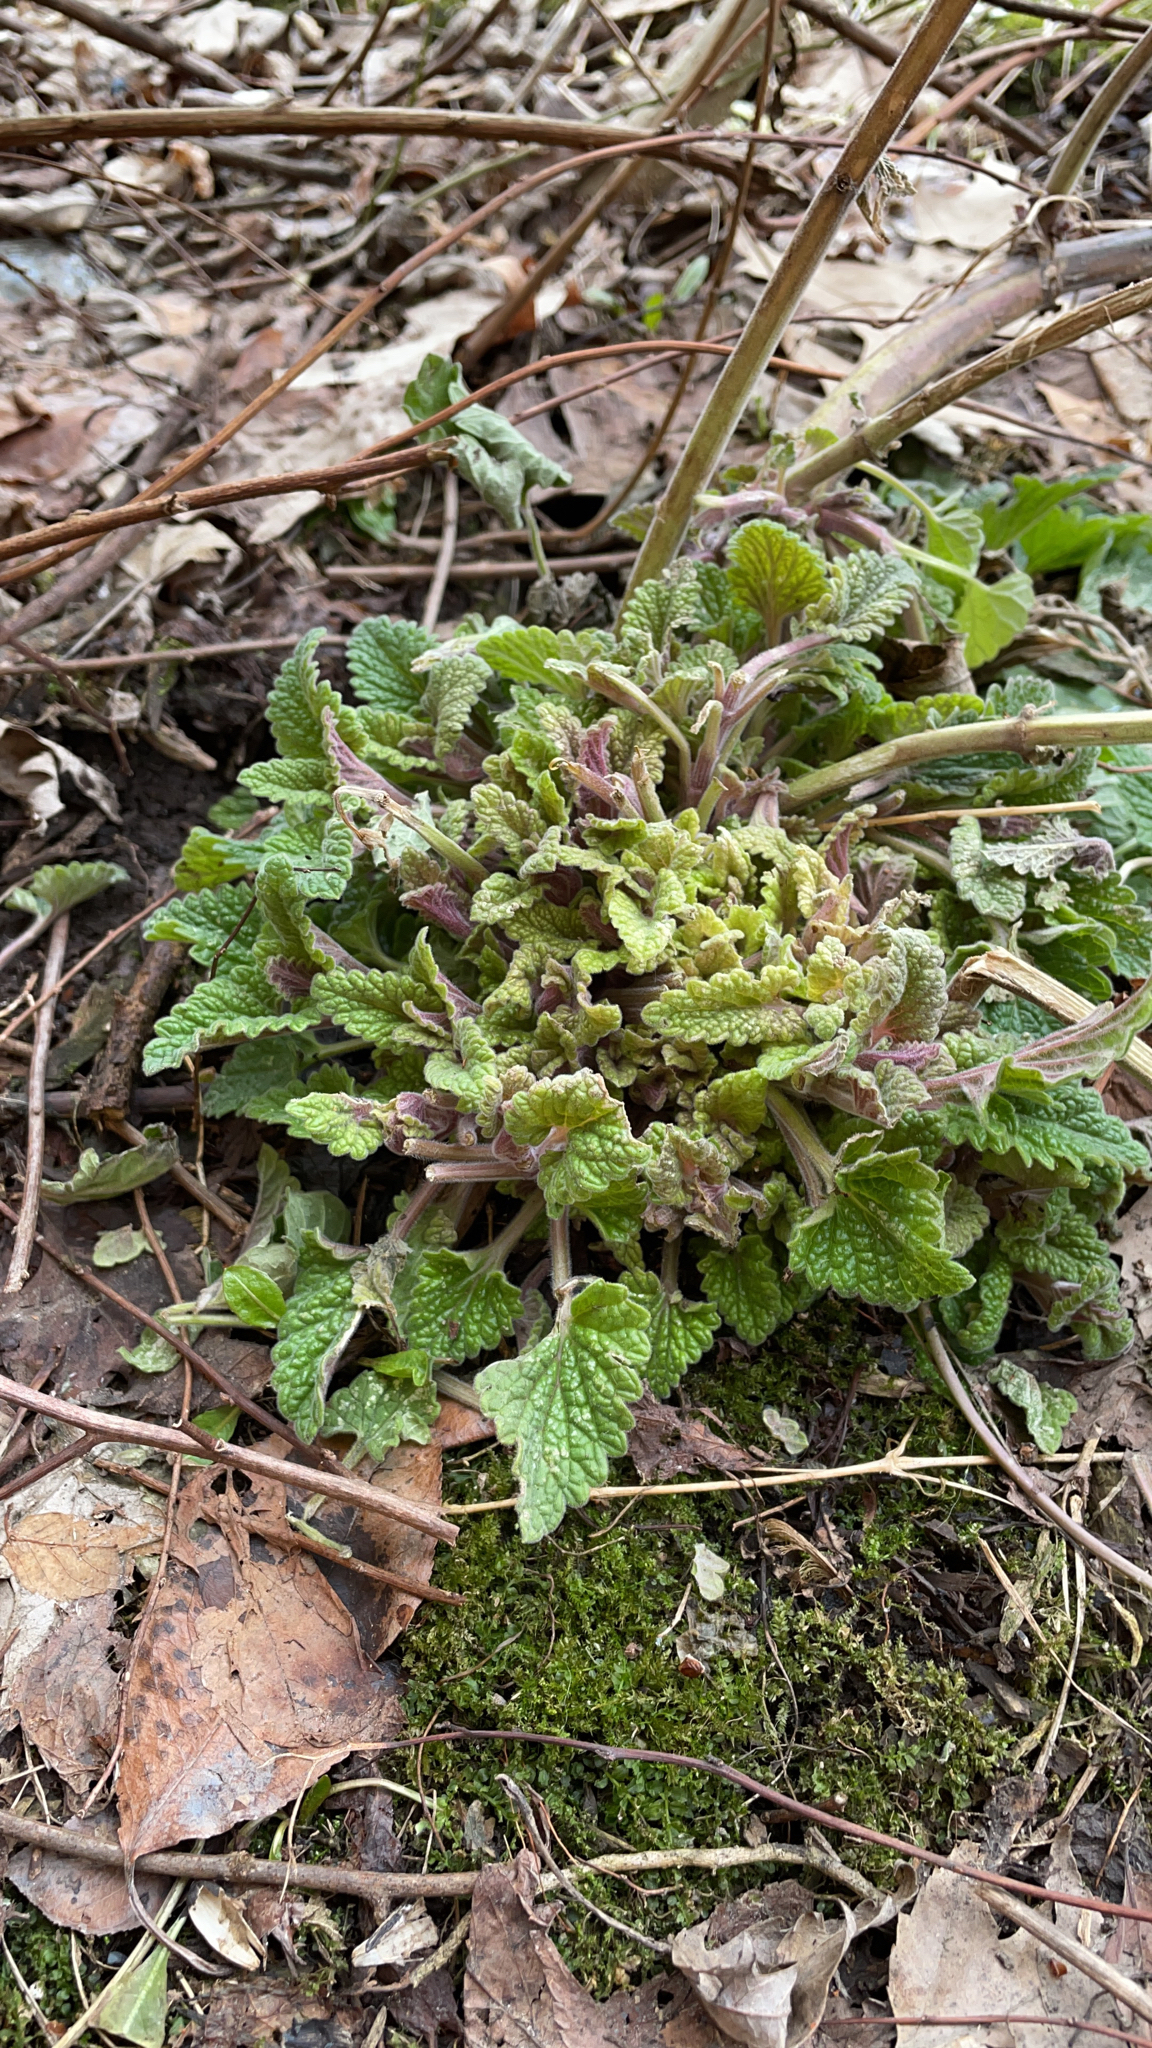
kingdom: Plantae
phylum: Tracheophyta
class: Magnoliopsida
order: Lamiales
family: Lamiaceae
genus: Nepeta
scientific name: Nepeta cataria
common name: Catnip
